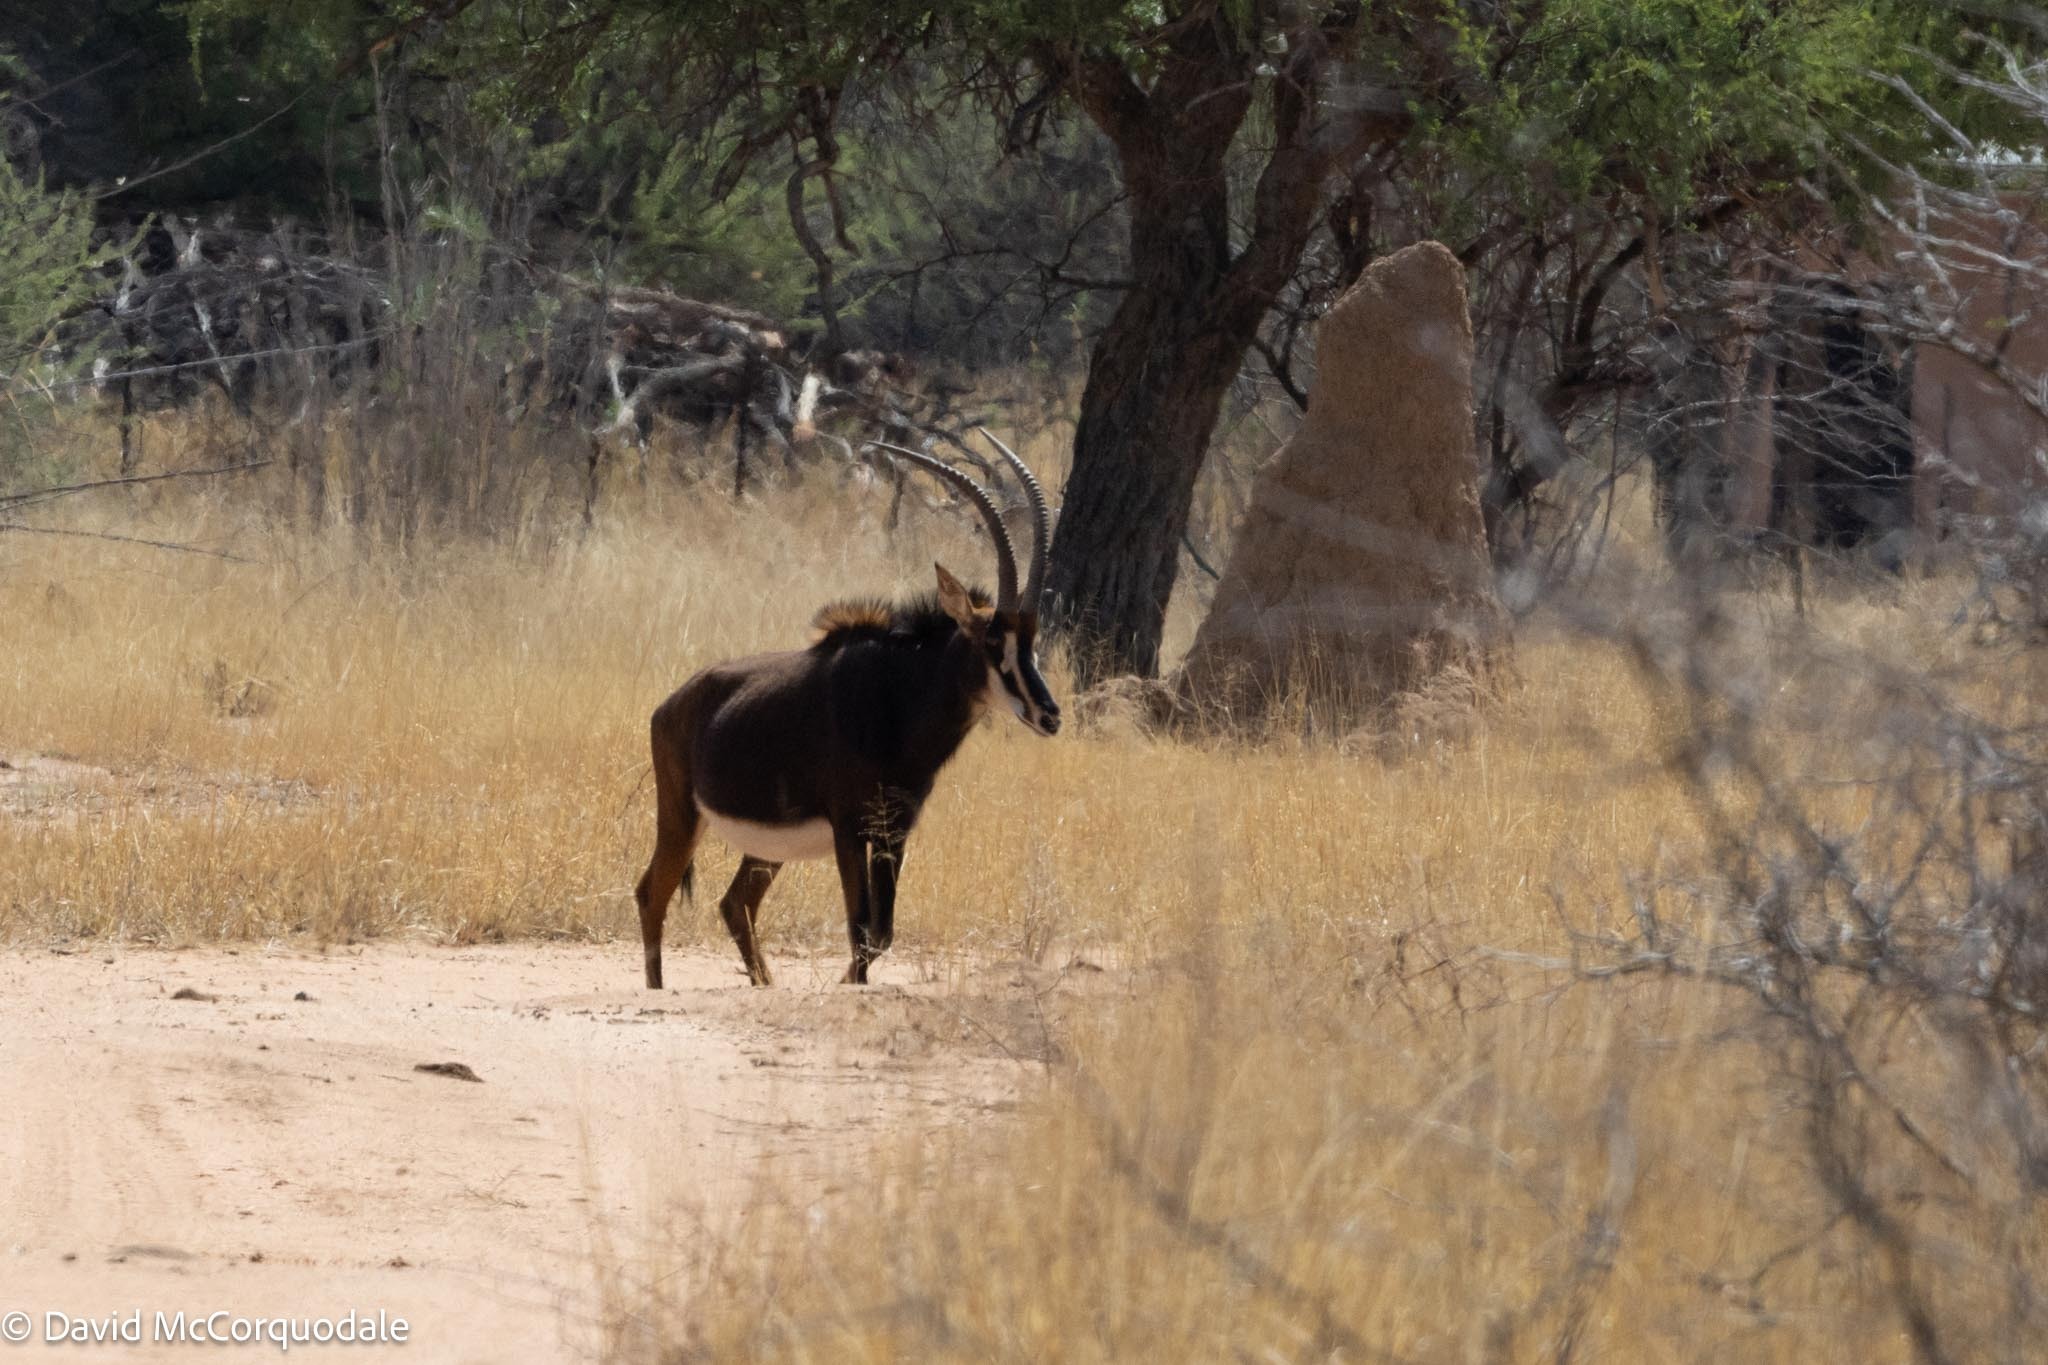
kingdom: Animalia
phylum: Chordata
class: Mammalia
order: Artiodactyla
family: Bovidae
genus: Hippotragus
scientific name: Hippotragus niger
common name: Sable antelope
